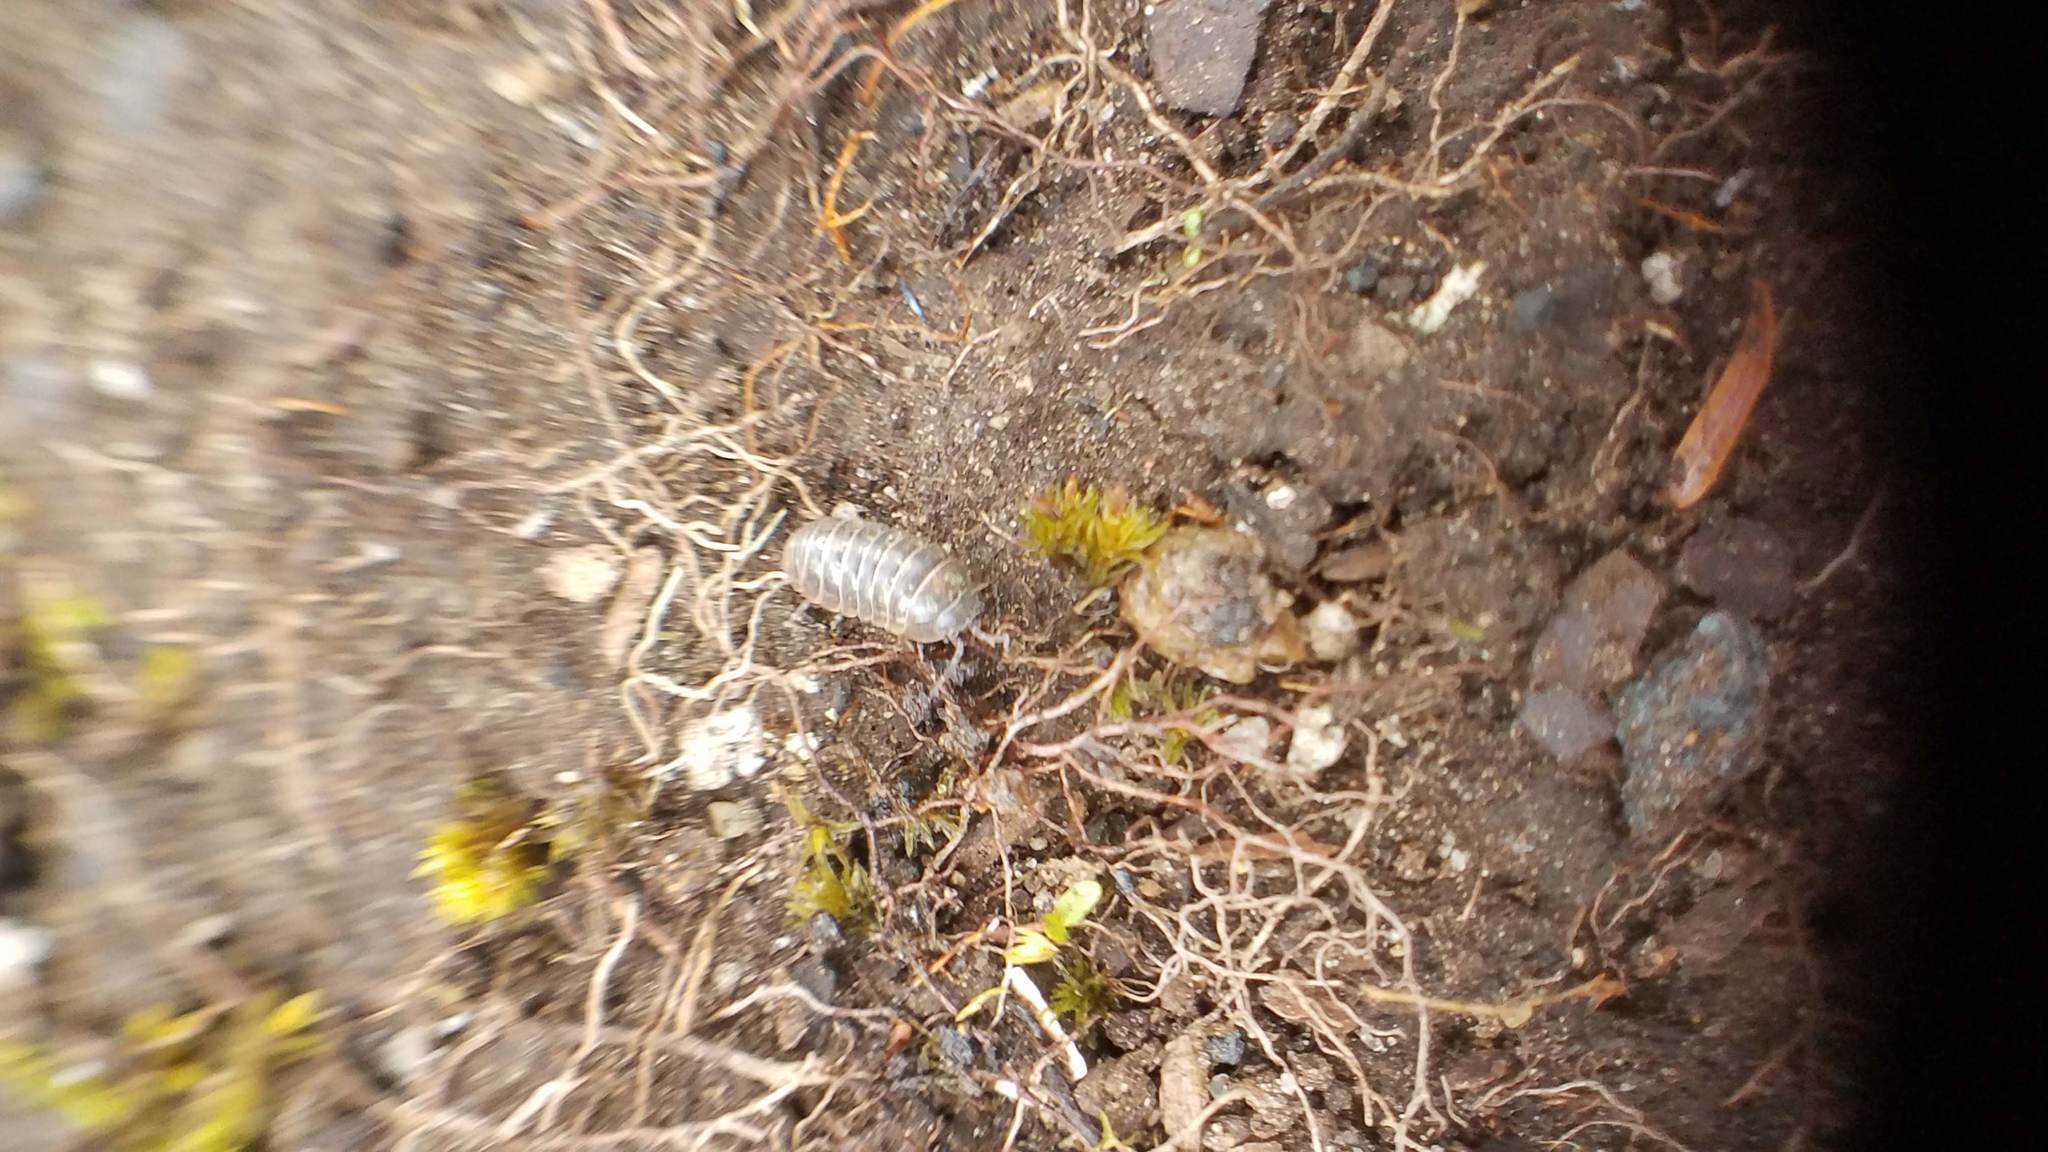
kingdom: Animalia
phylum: Arthropoda
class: Malacostraca
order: Isopoda
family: Armadillidiidae
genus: Armadillidium
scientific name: Armadillidium vulgare
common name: Common pill woodlouse
